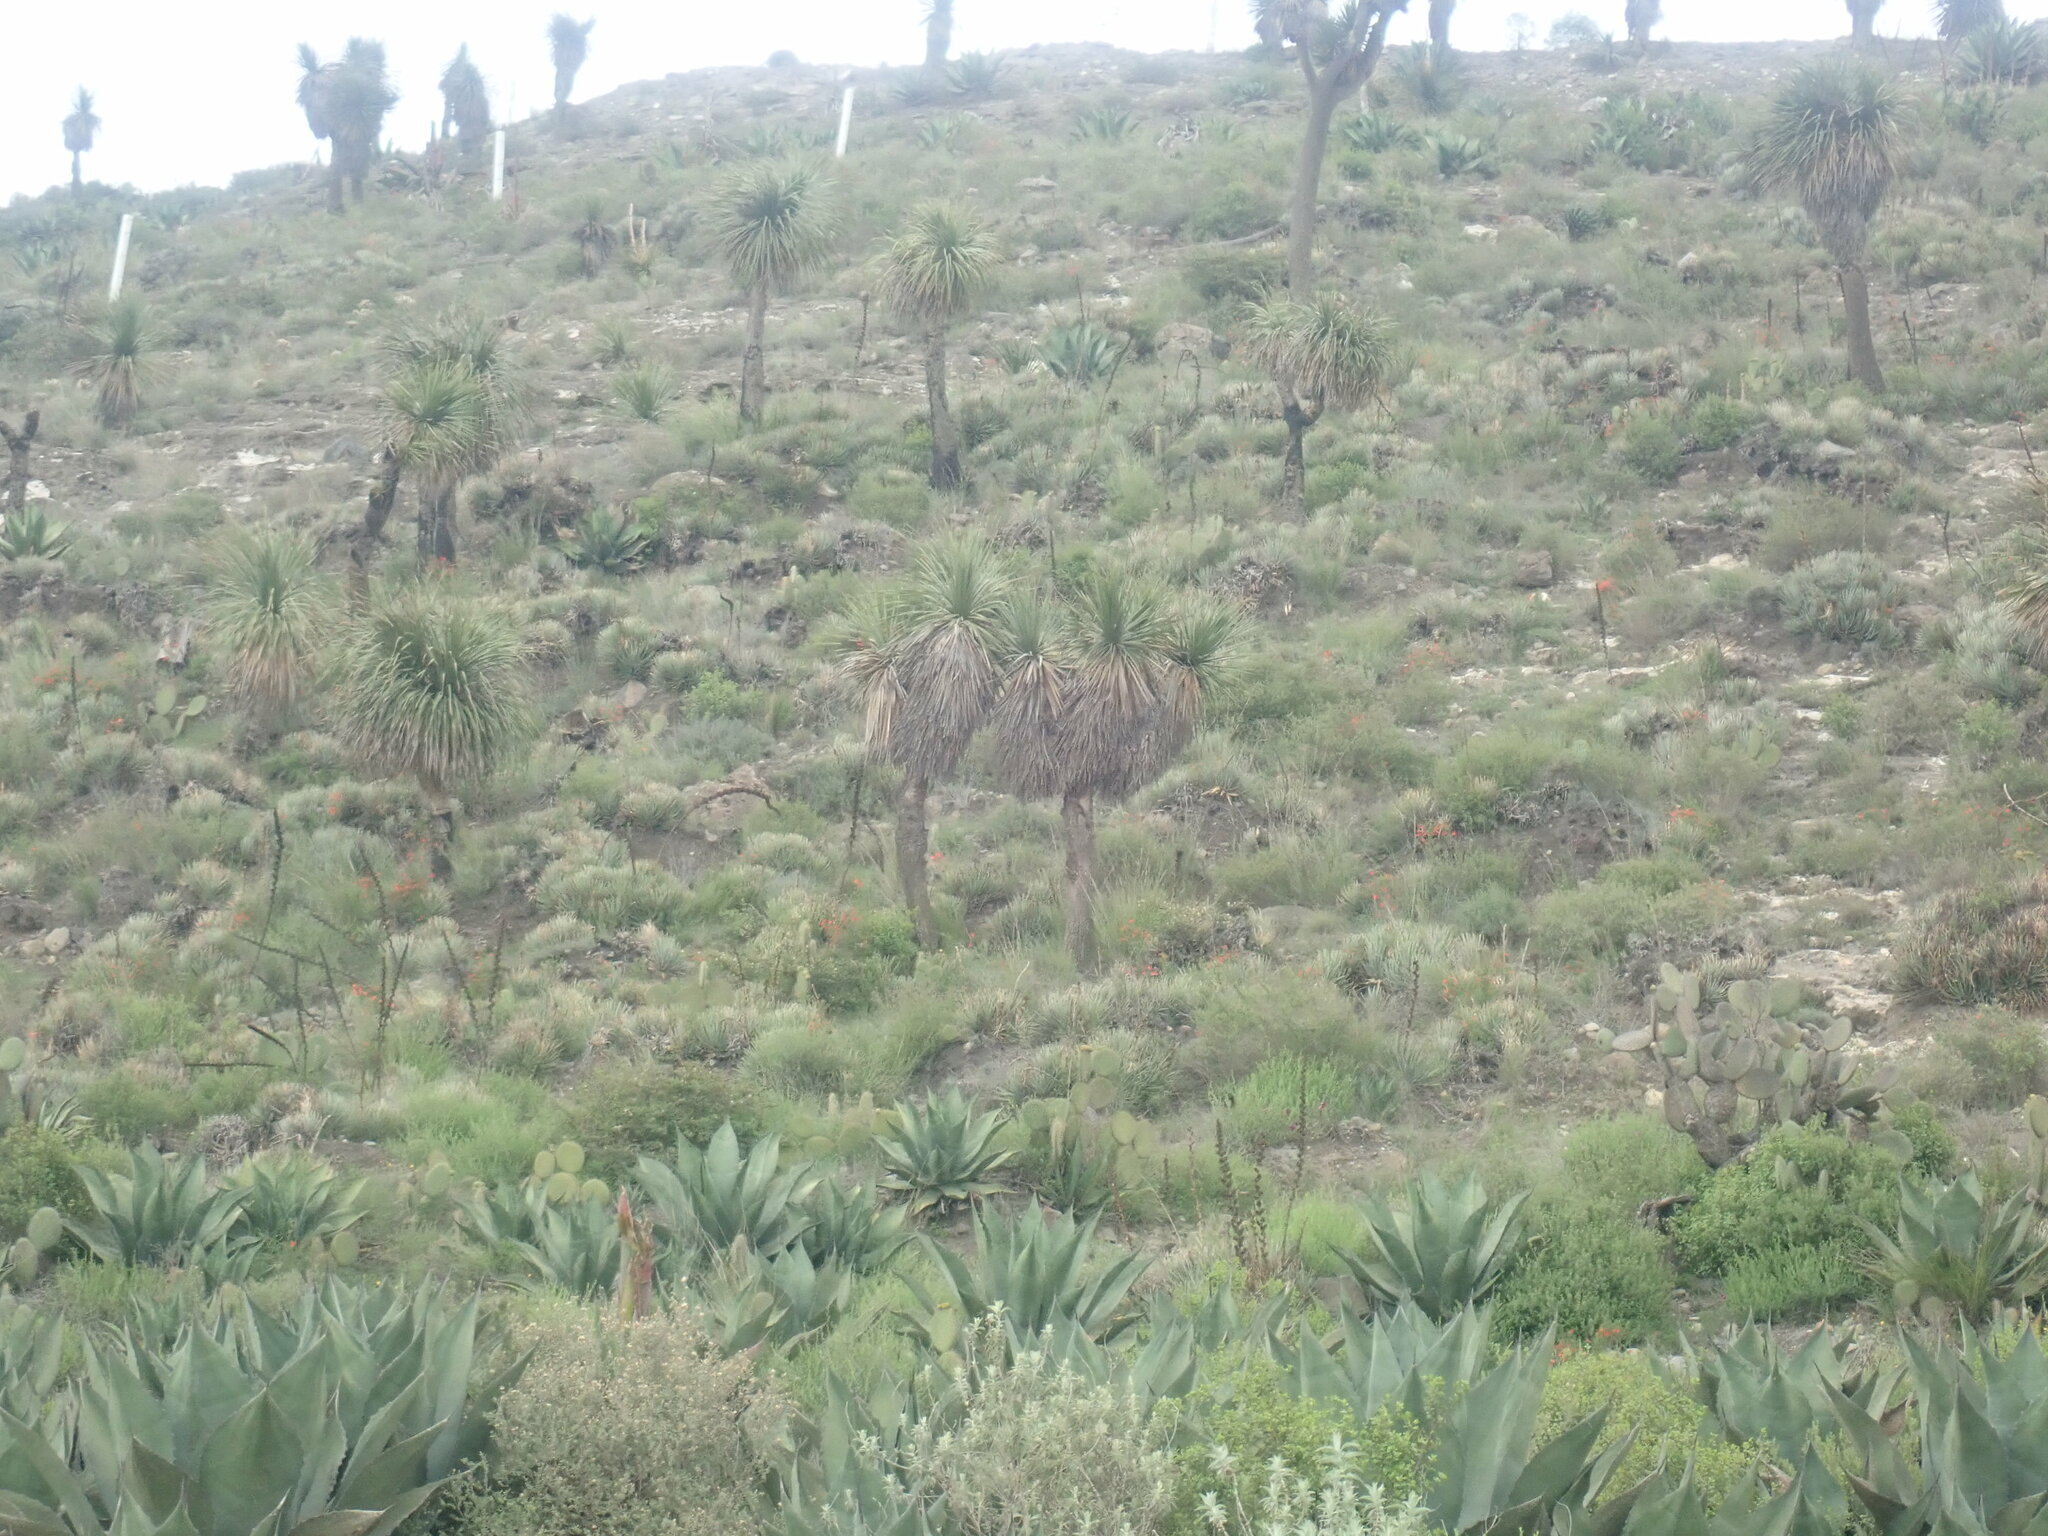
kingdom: Plantae
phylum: Tracheophyta
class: Liliopsida
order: Asparagales
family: Asparagaceae
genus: Nolina
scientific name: Nolina parviflora
